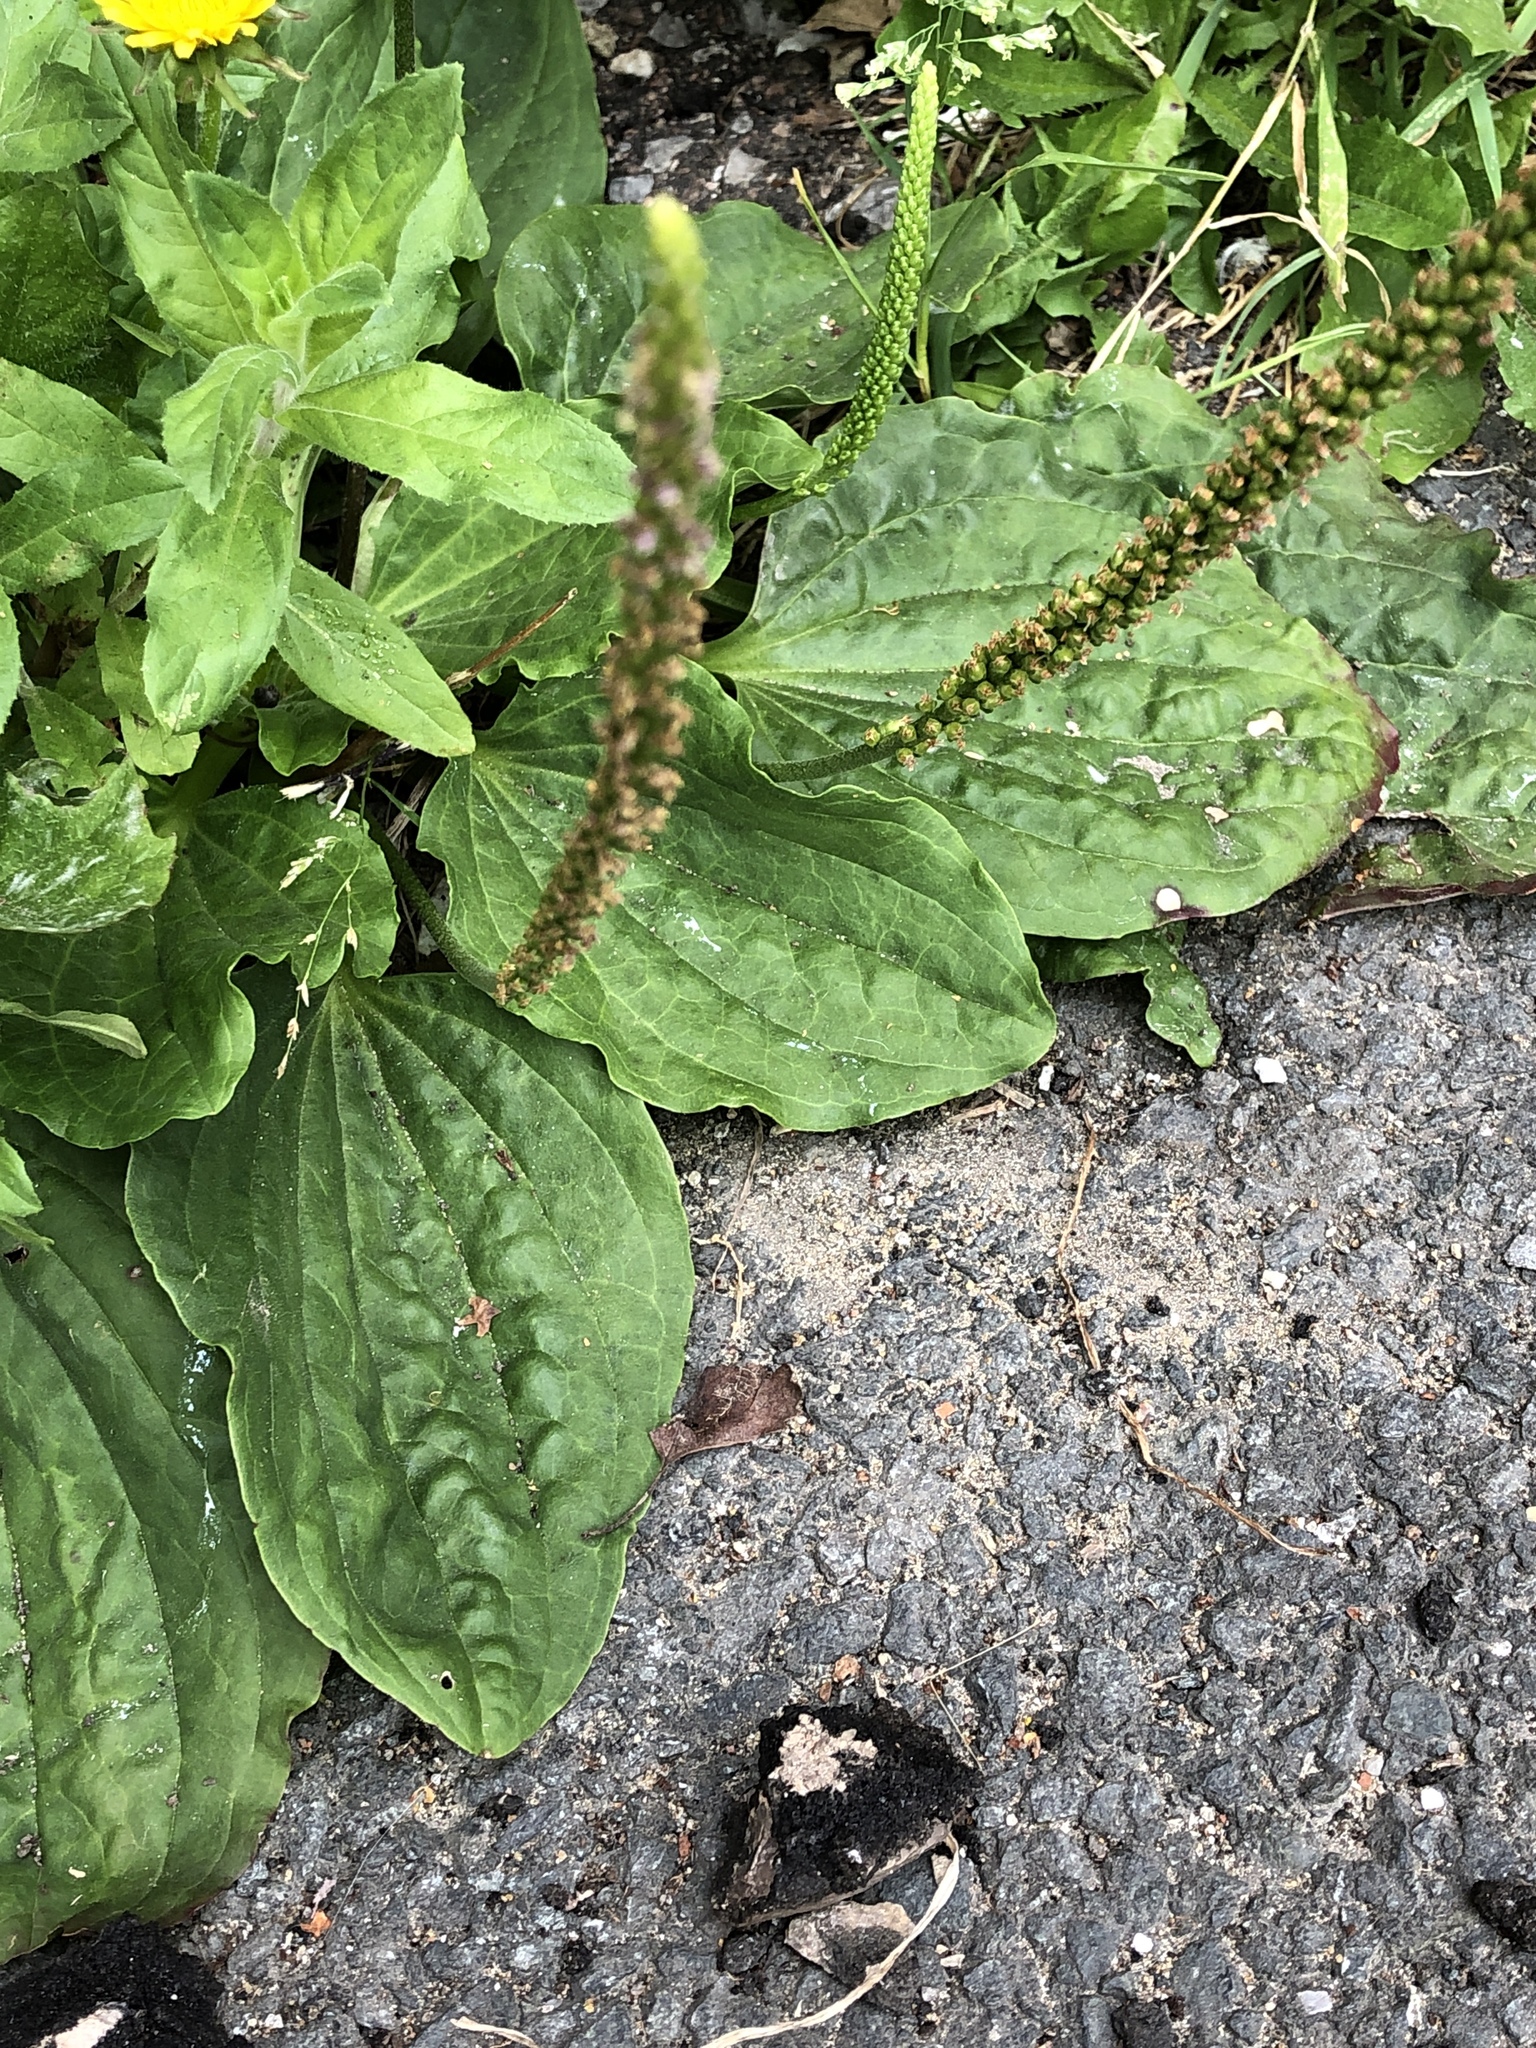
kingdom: Plantae
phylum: Tracheophyta
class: Magnoliopsida
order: Lamiales
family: Plantaginaceae
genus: Plantago
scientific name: Plantago major
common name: Common plantain
